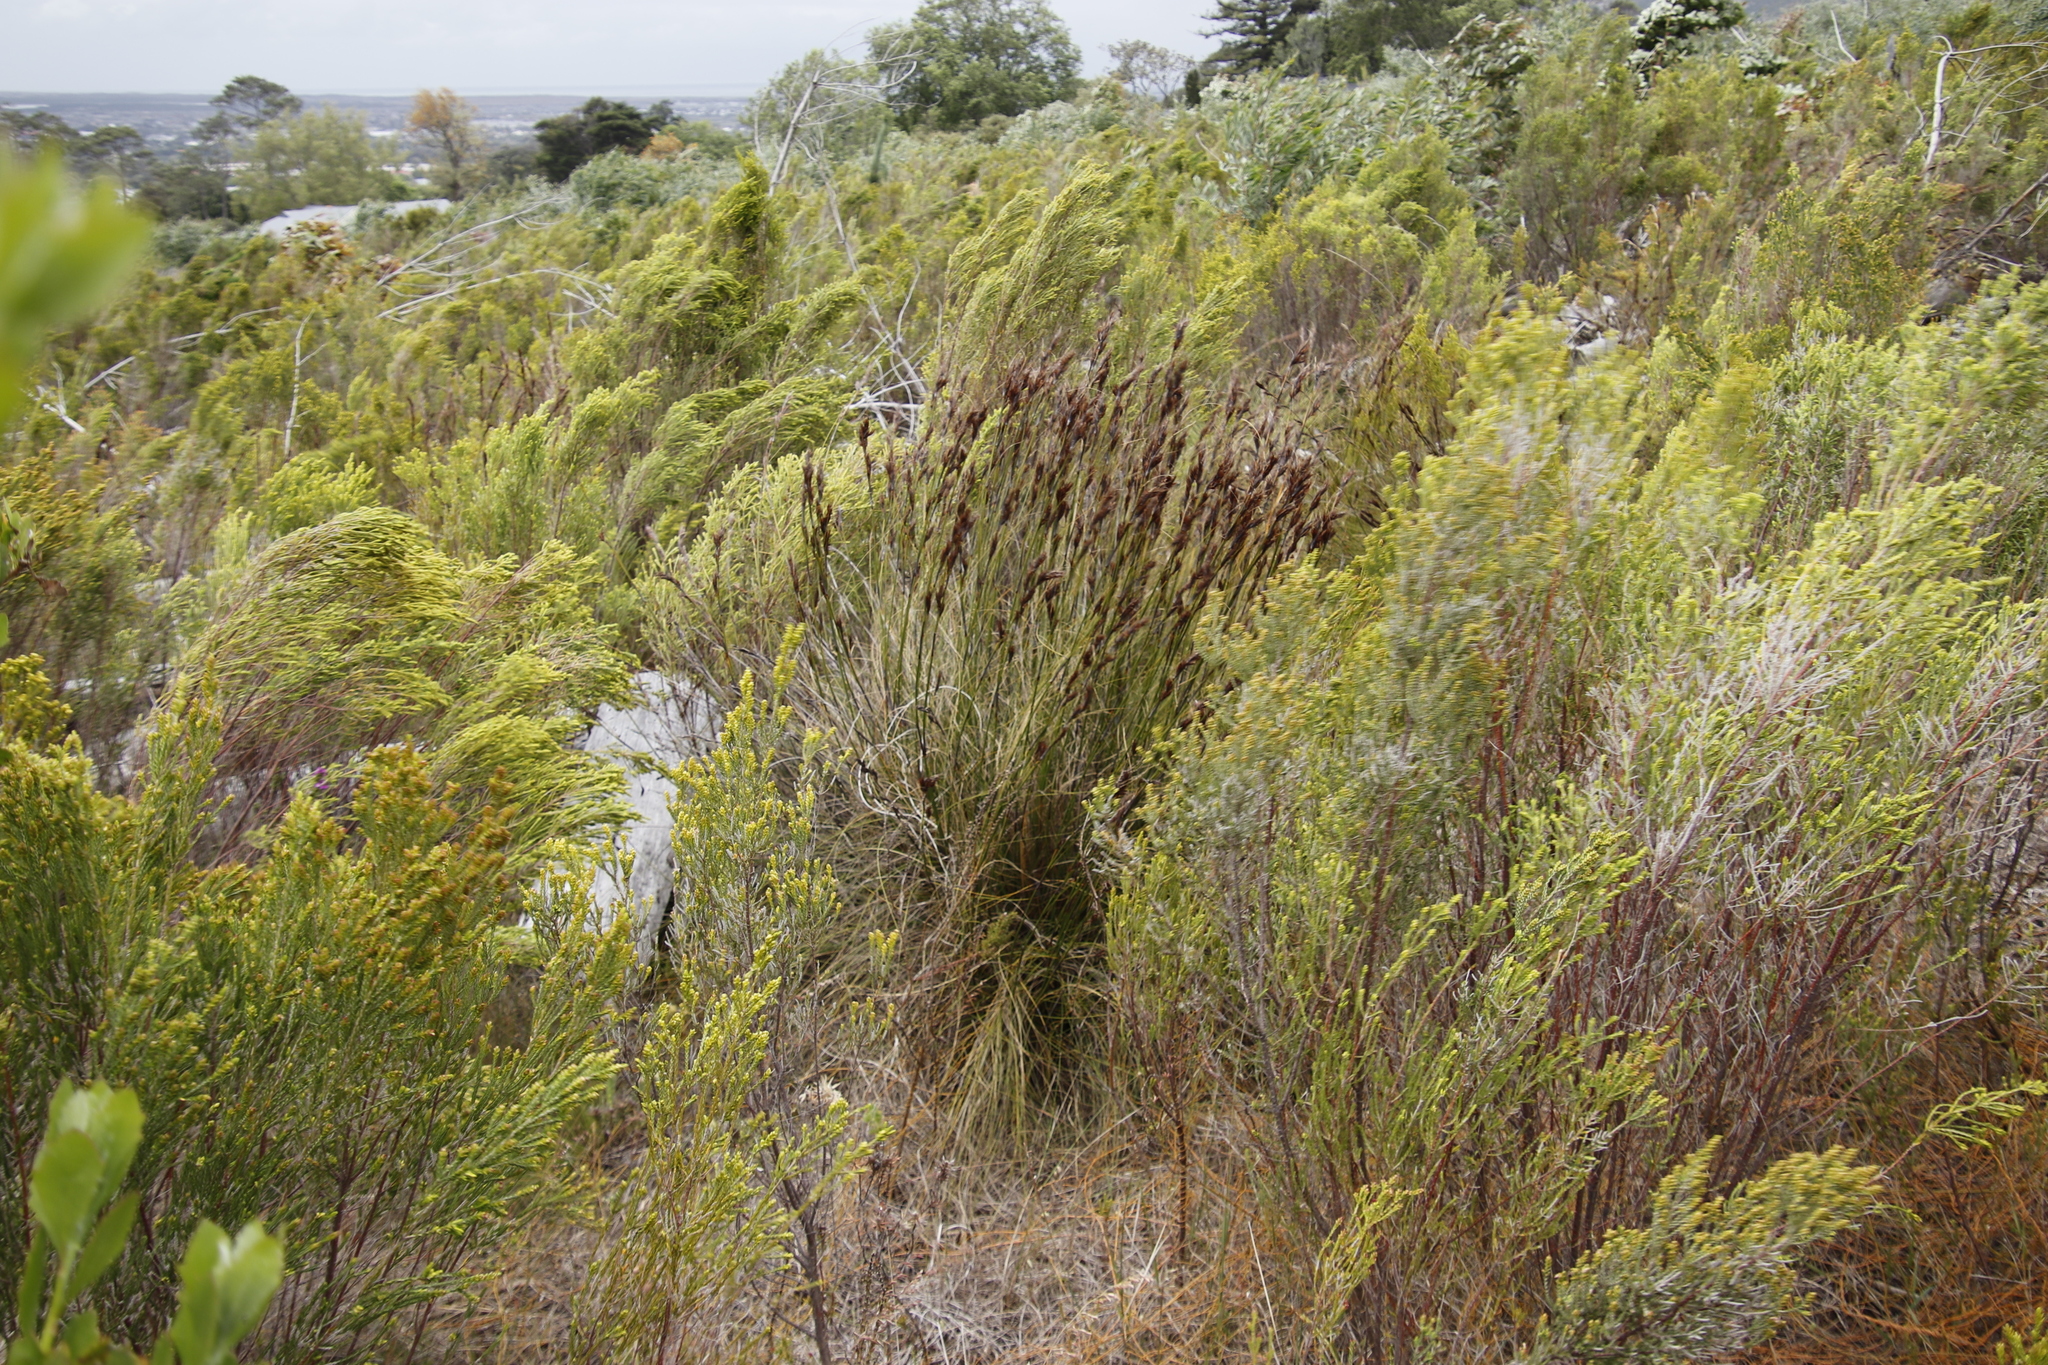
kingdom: Plantae
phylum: Tracheophyta
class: Liliopsida
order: Poales
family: Cyperaceae
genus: Tetraria
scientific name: Tetraria ustulata
